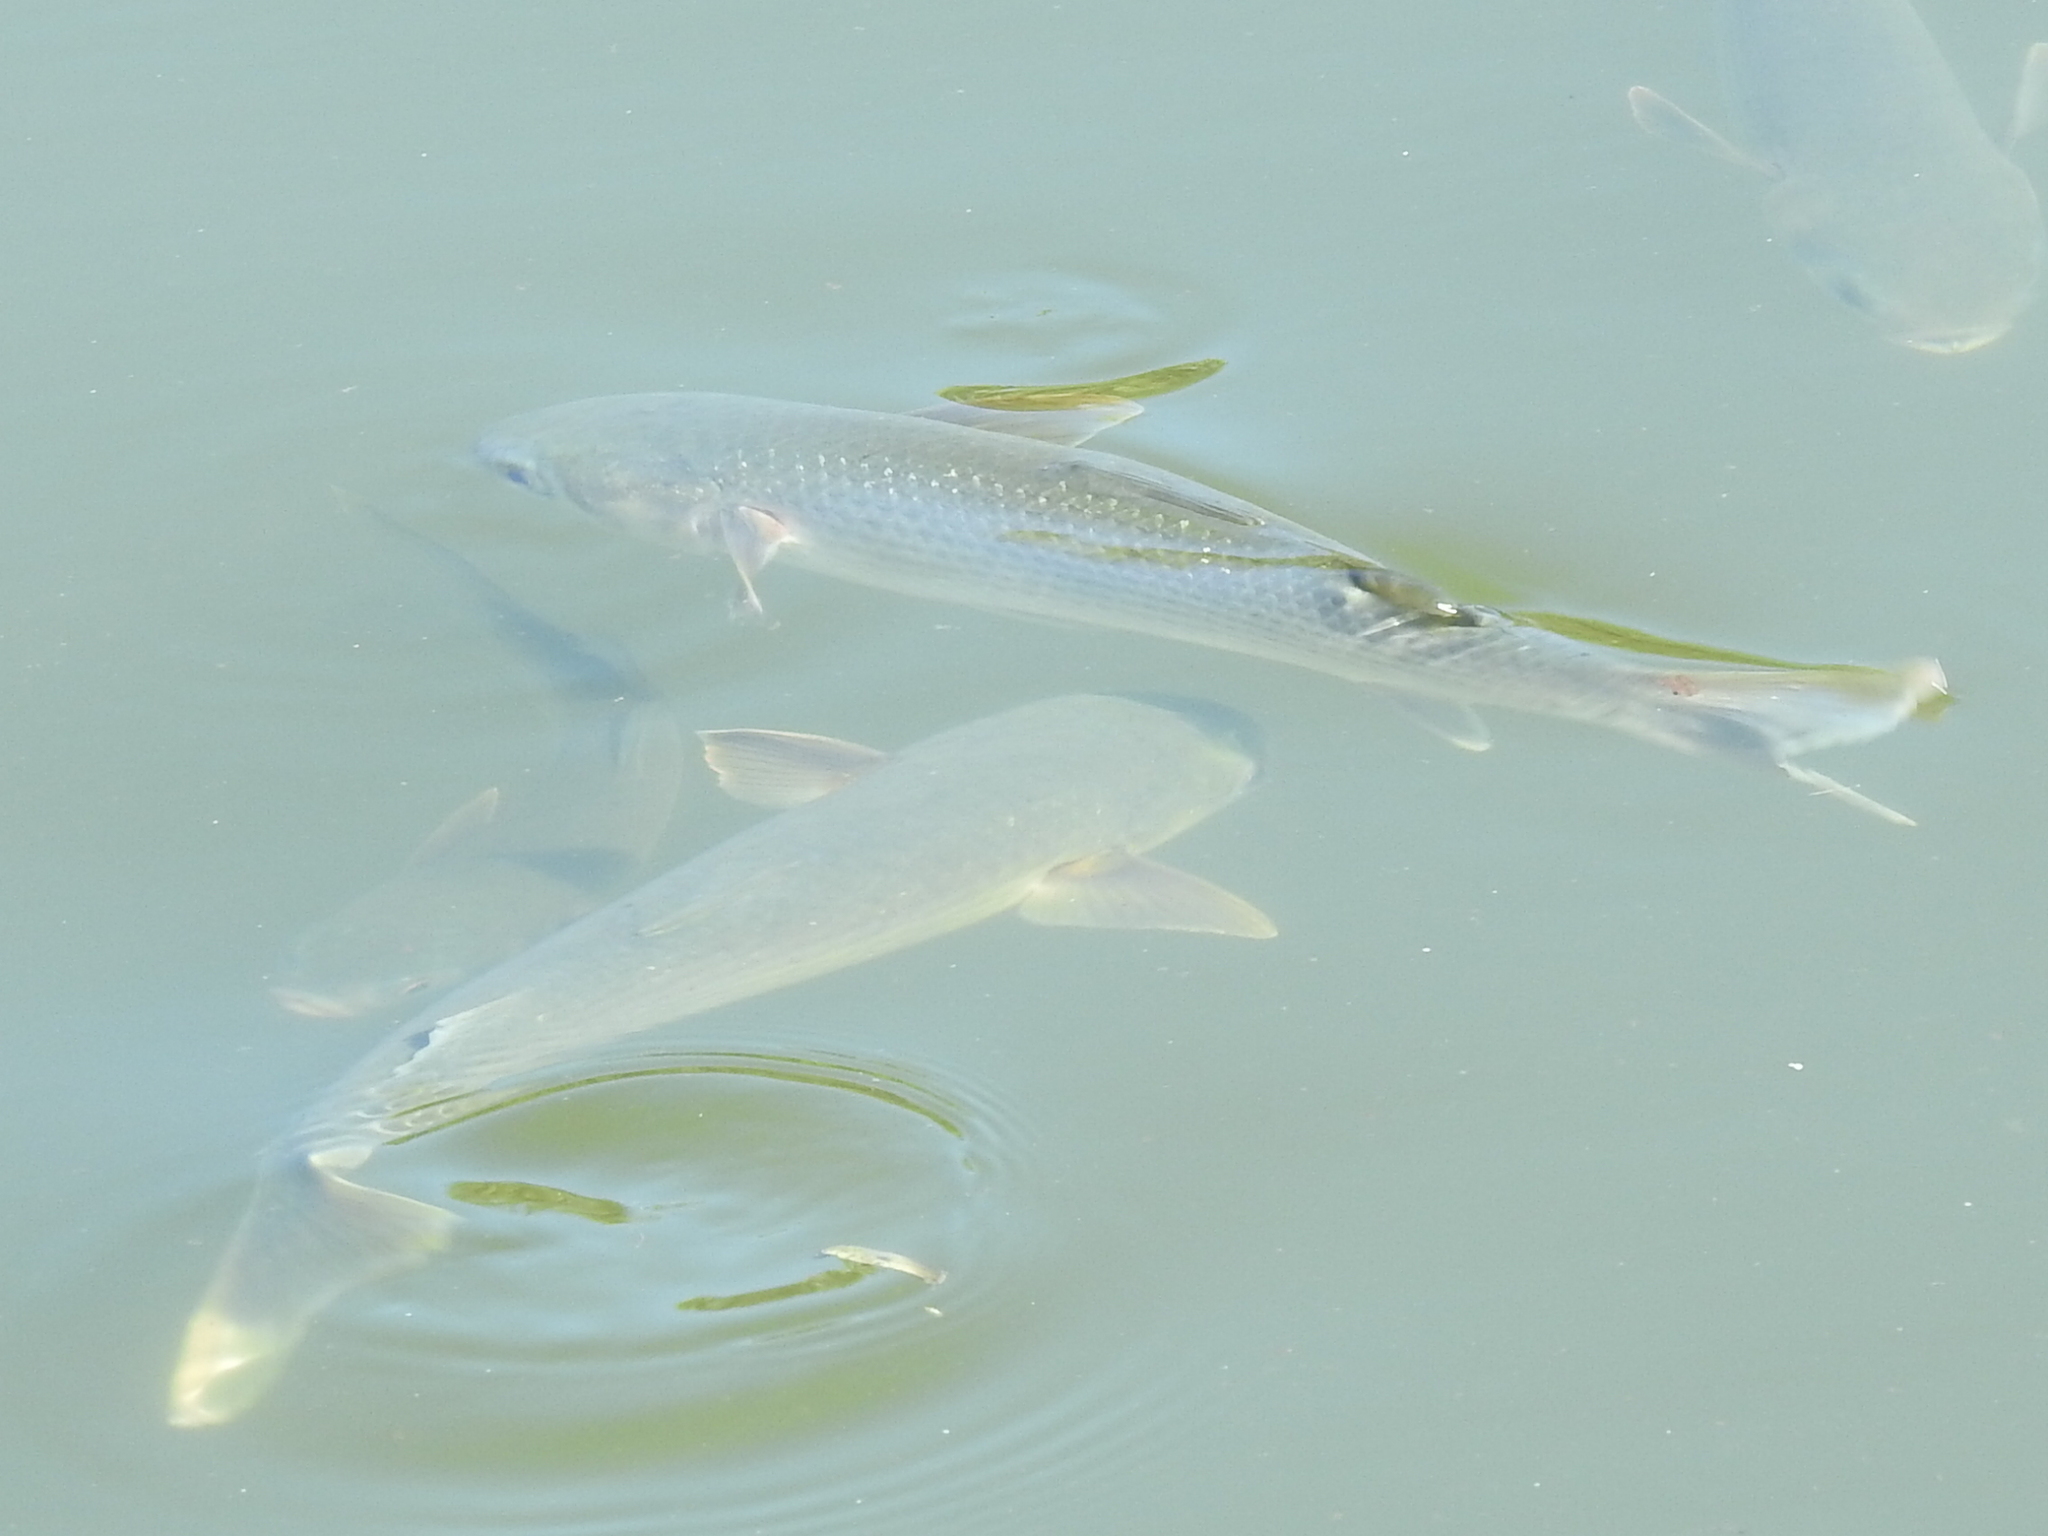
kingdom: Animalia
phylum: Chordata
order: Mugiliformes
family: Mugilidae
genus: Mugil
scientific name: Mugil cephalus
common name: Grey mullet
